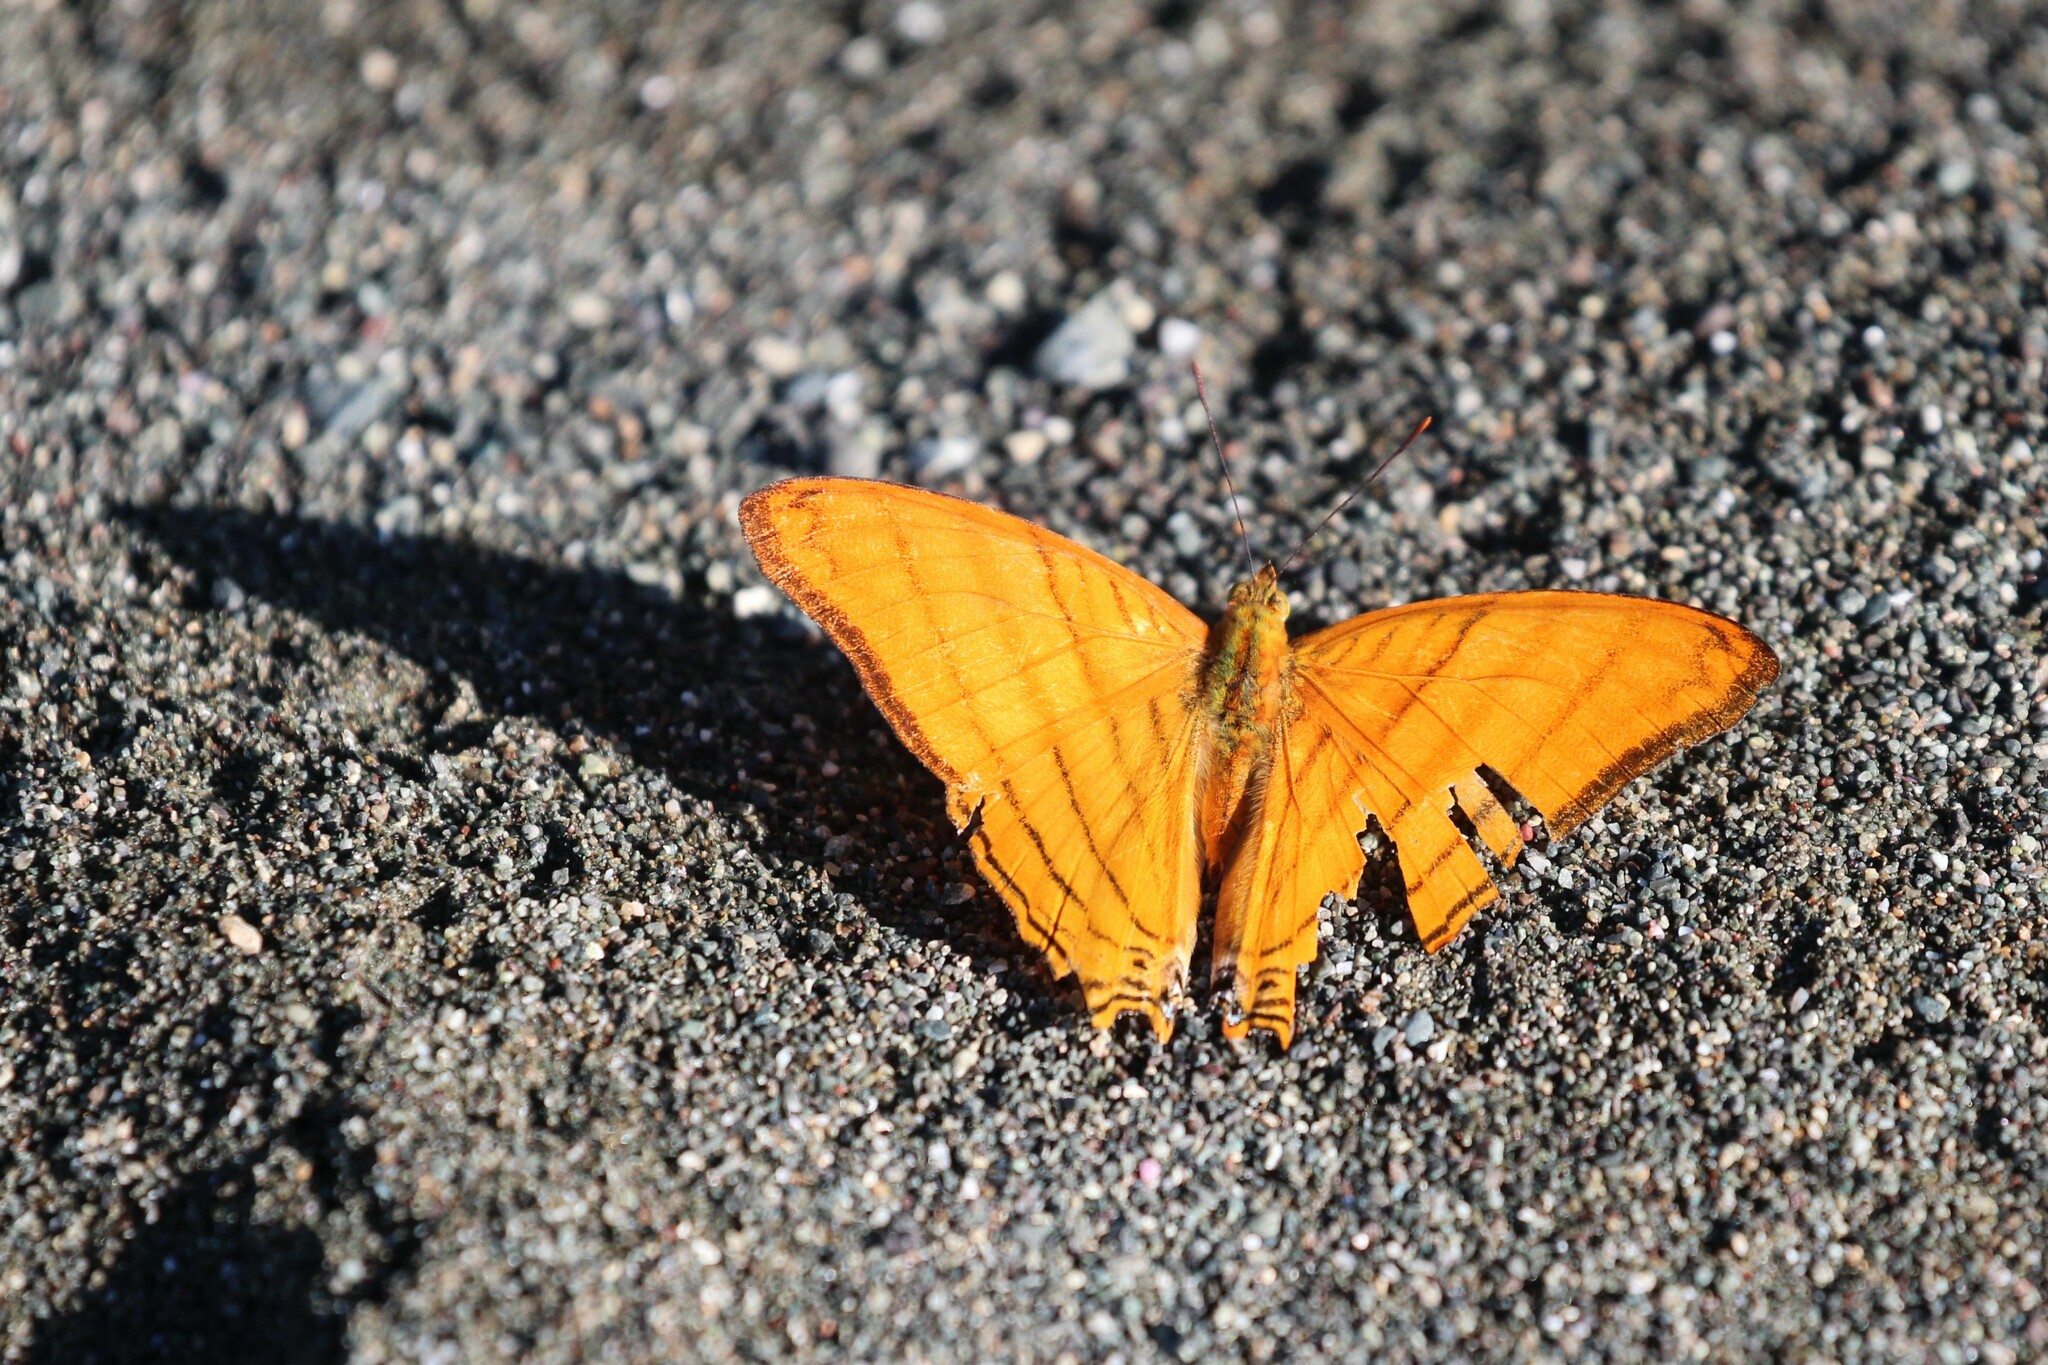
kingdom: Animalia
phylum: Arthropoda
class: Insecta
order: Lepidoptera
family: Nymphalidae
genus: Marpesia
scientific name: Marpesia berania
